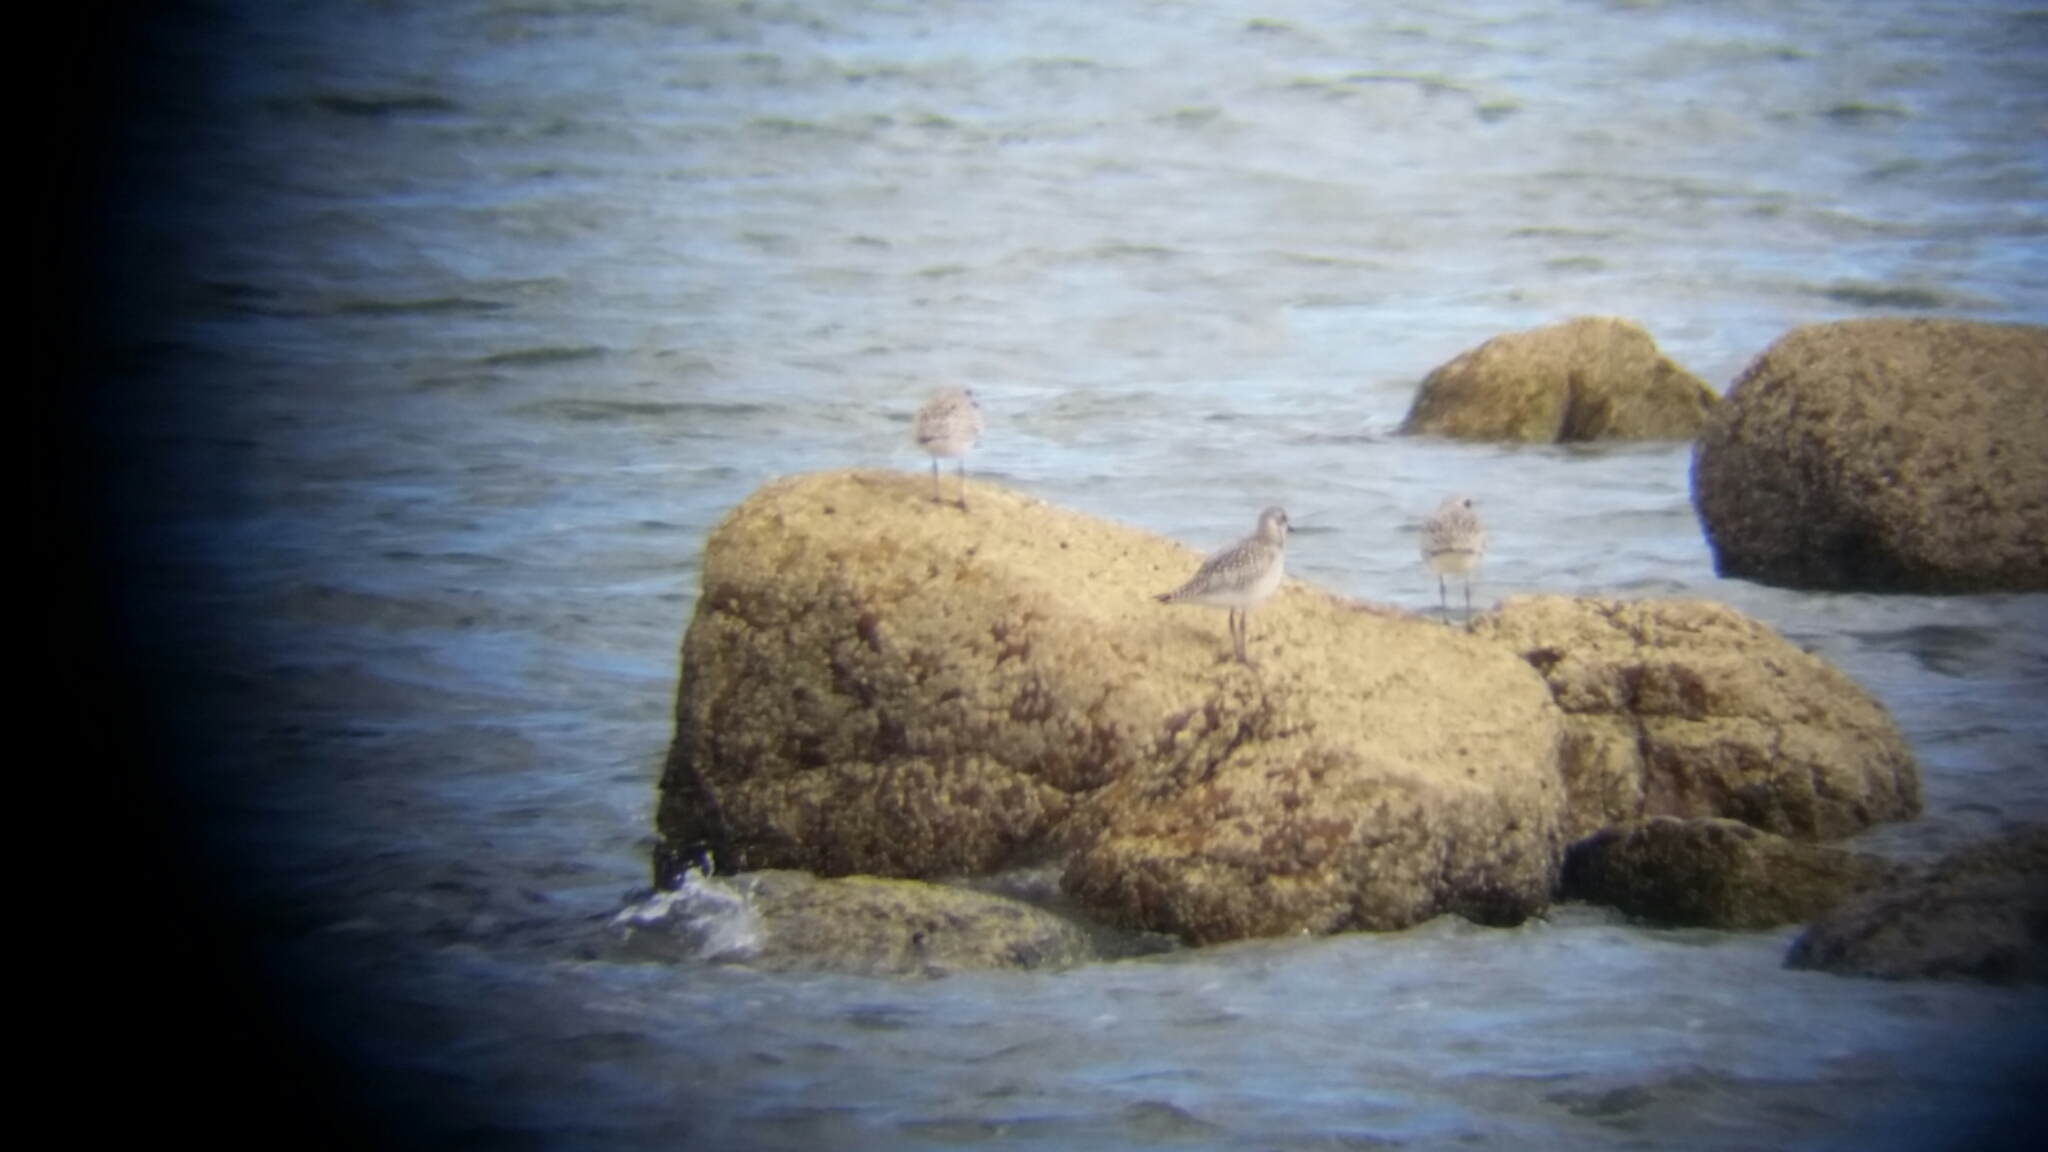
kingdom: Animalia
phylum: Chordata
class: Aves
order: Charadriiformes
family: Charadriidae
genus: Pluvialis
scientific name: Pluvialis squatarola
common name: Grey plover
